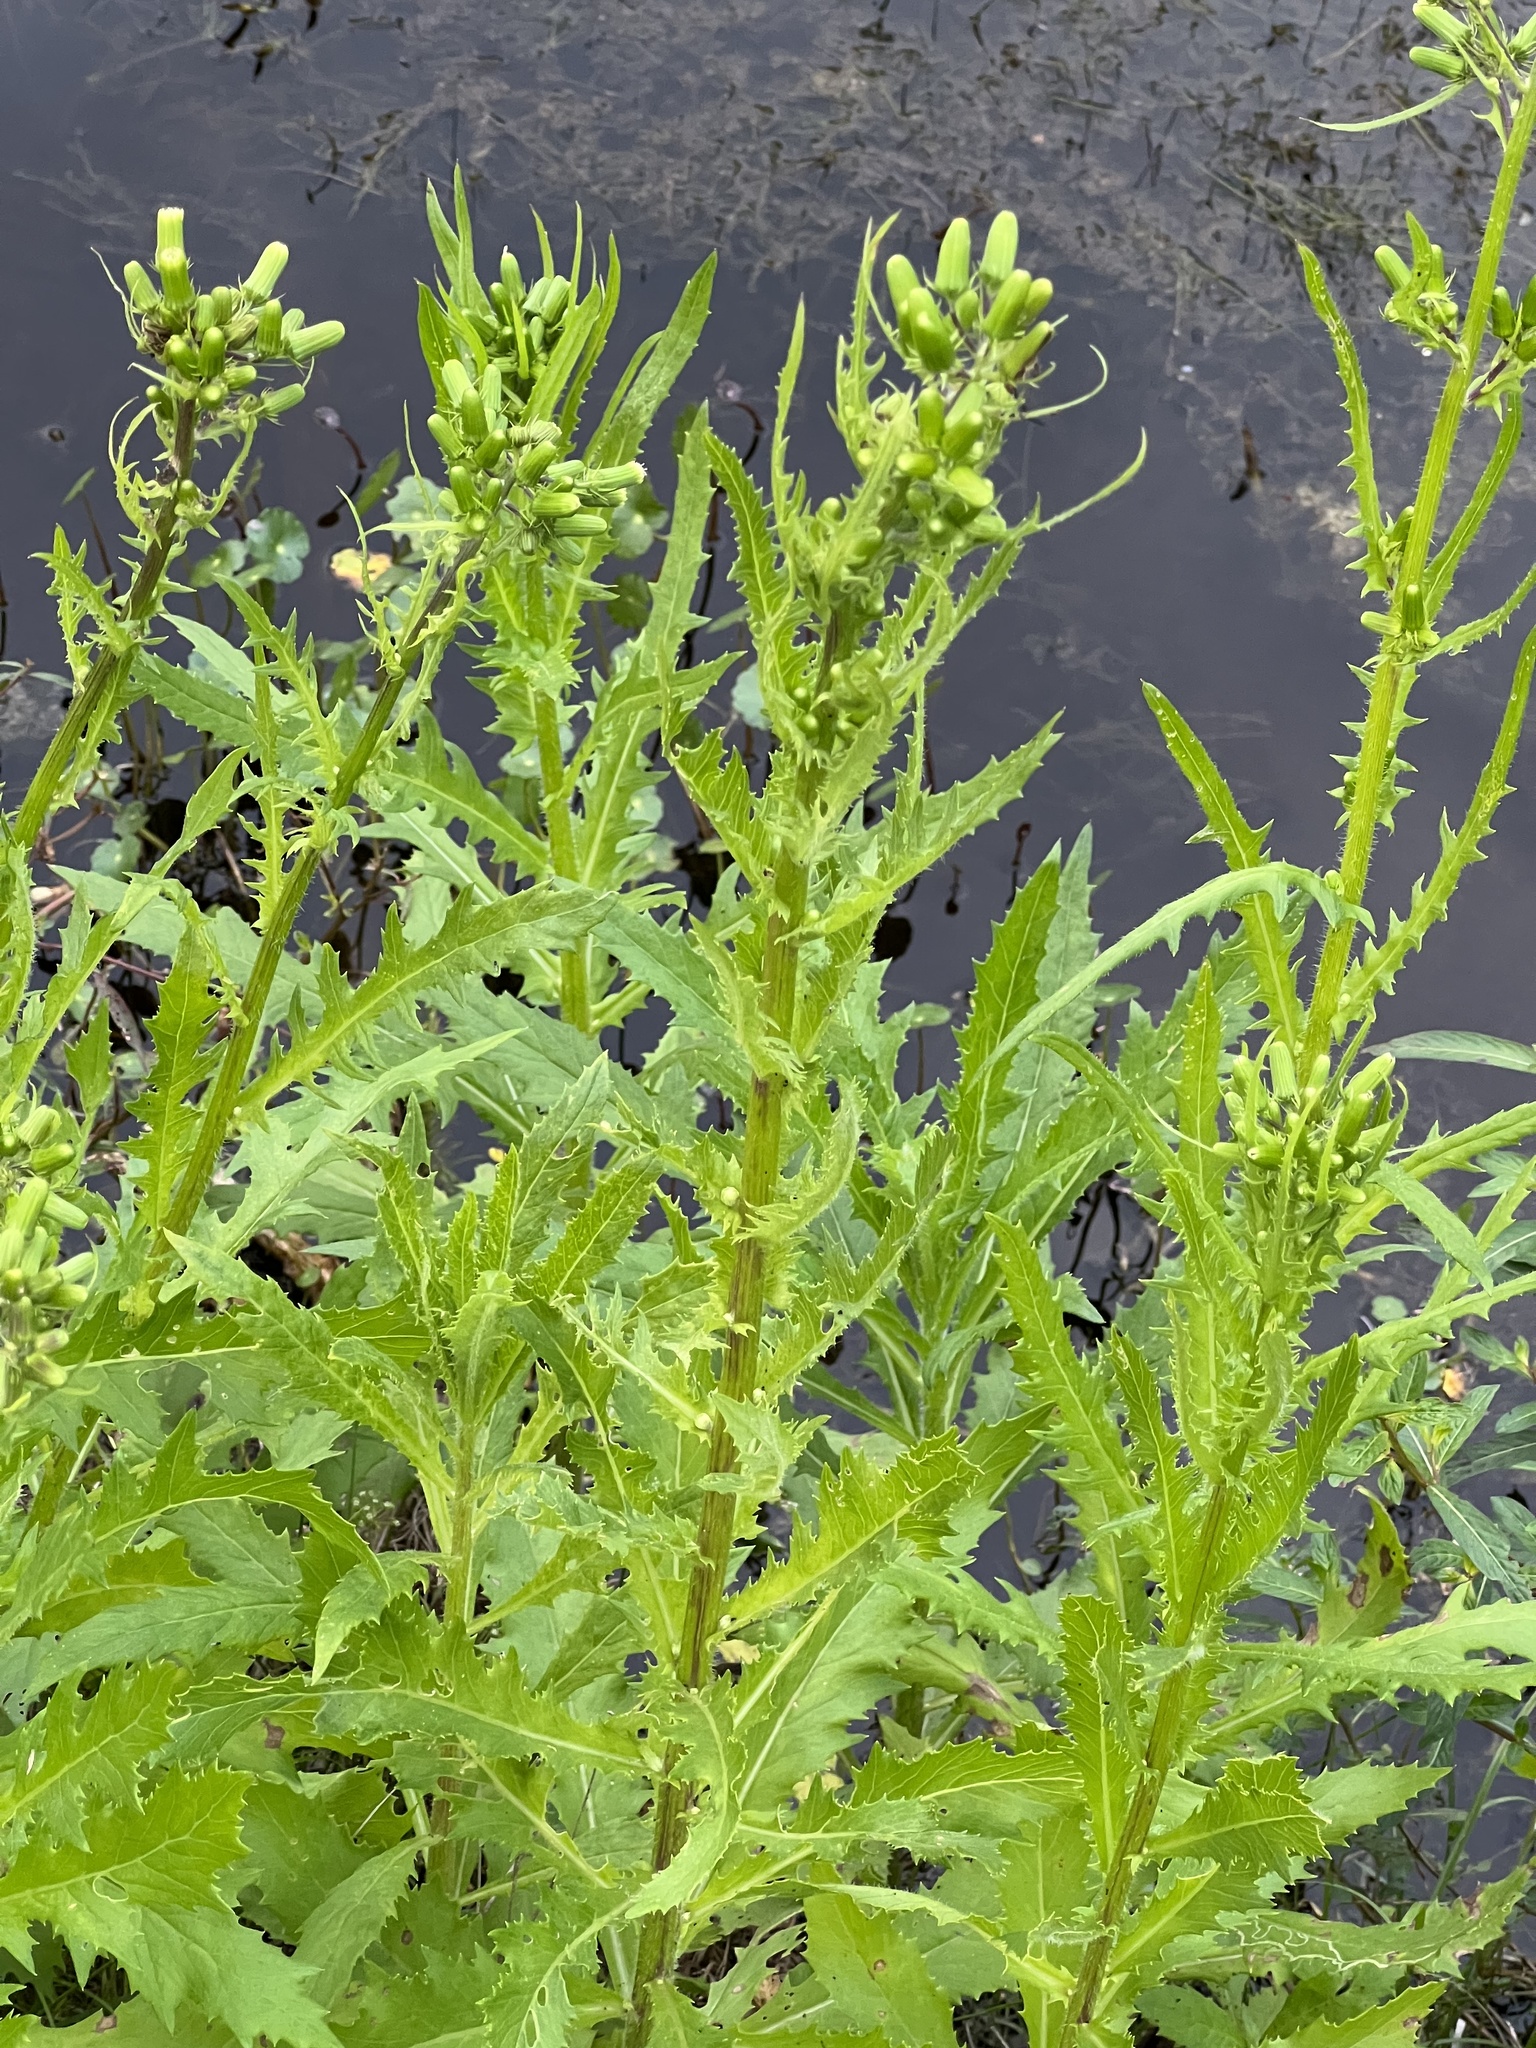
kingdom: Plantae
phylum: Tracheophyta
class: Magnoliopsida
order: Asterales
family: Asteraceae
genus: Erechtites
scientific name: Erechtites hieraciifolius
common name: American burnweed
